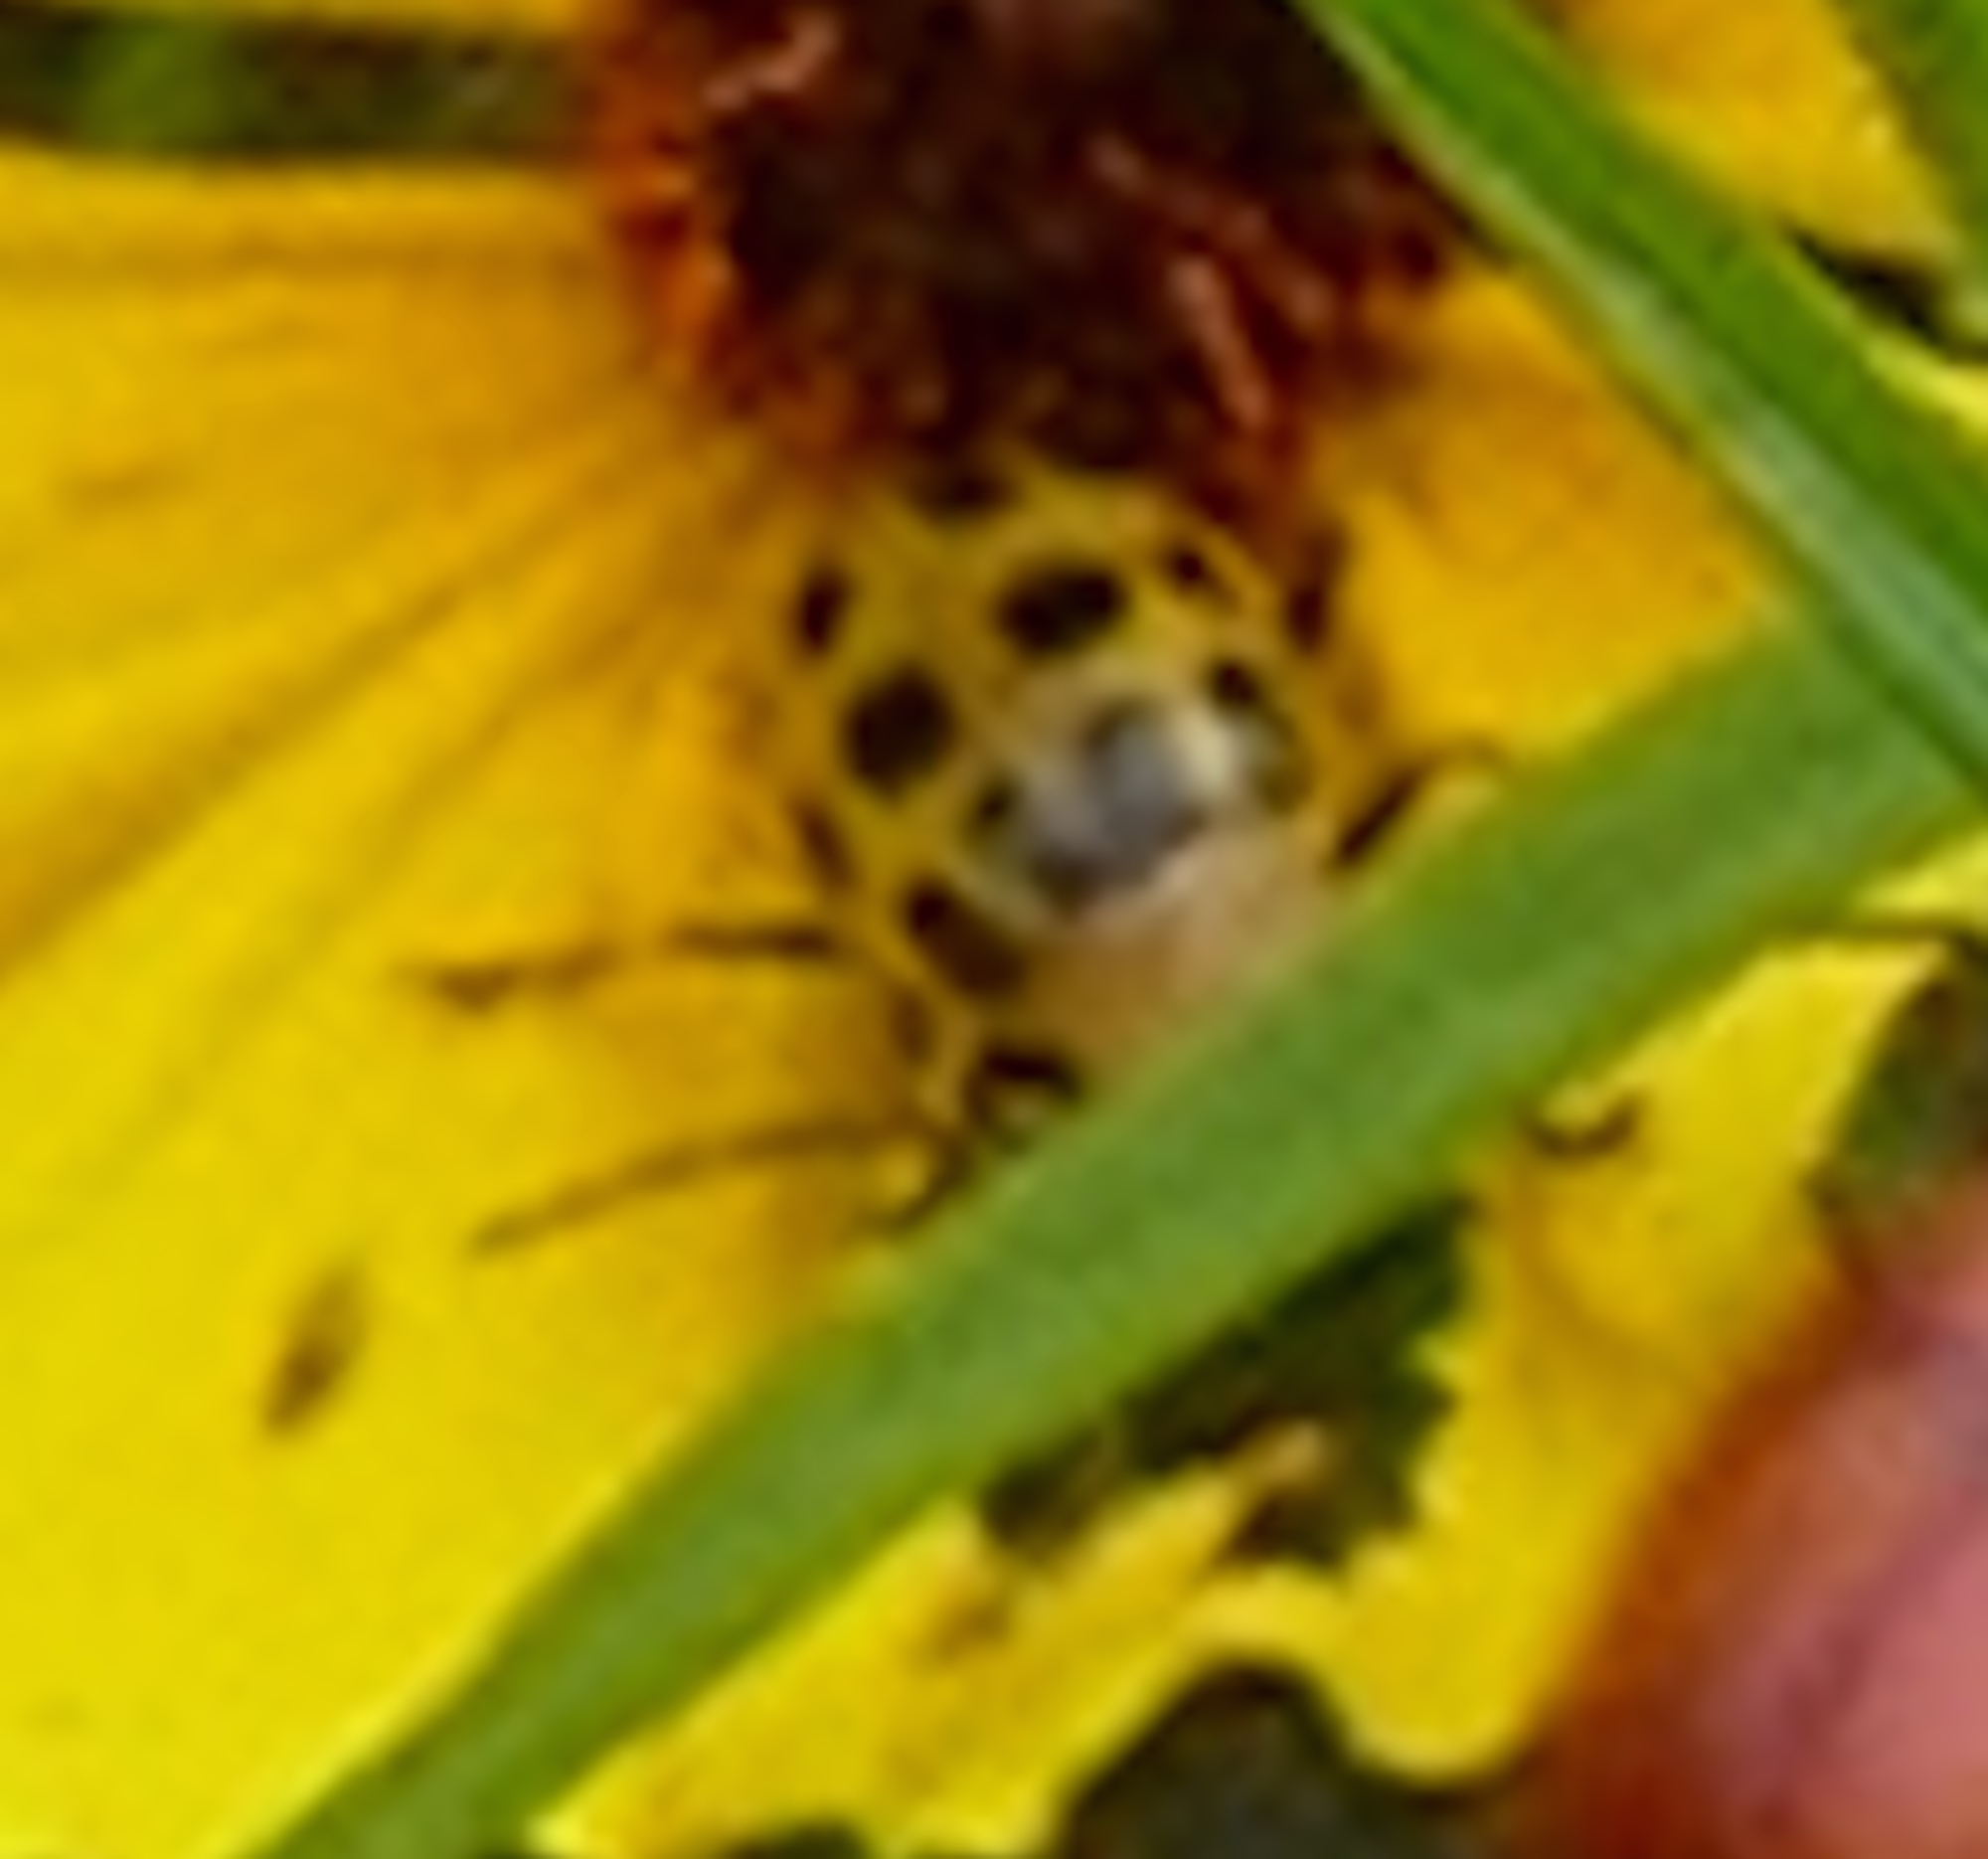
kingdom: Animalia
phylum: Arthropoda
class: Insecta
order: Coleoptera
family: Chrysomelidae
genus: Diabrotica
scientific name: Diabrotica undecimpunctata
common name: Spotted cucumber beetle
